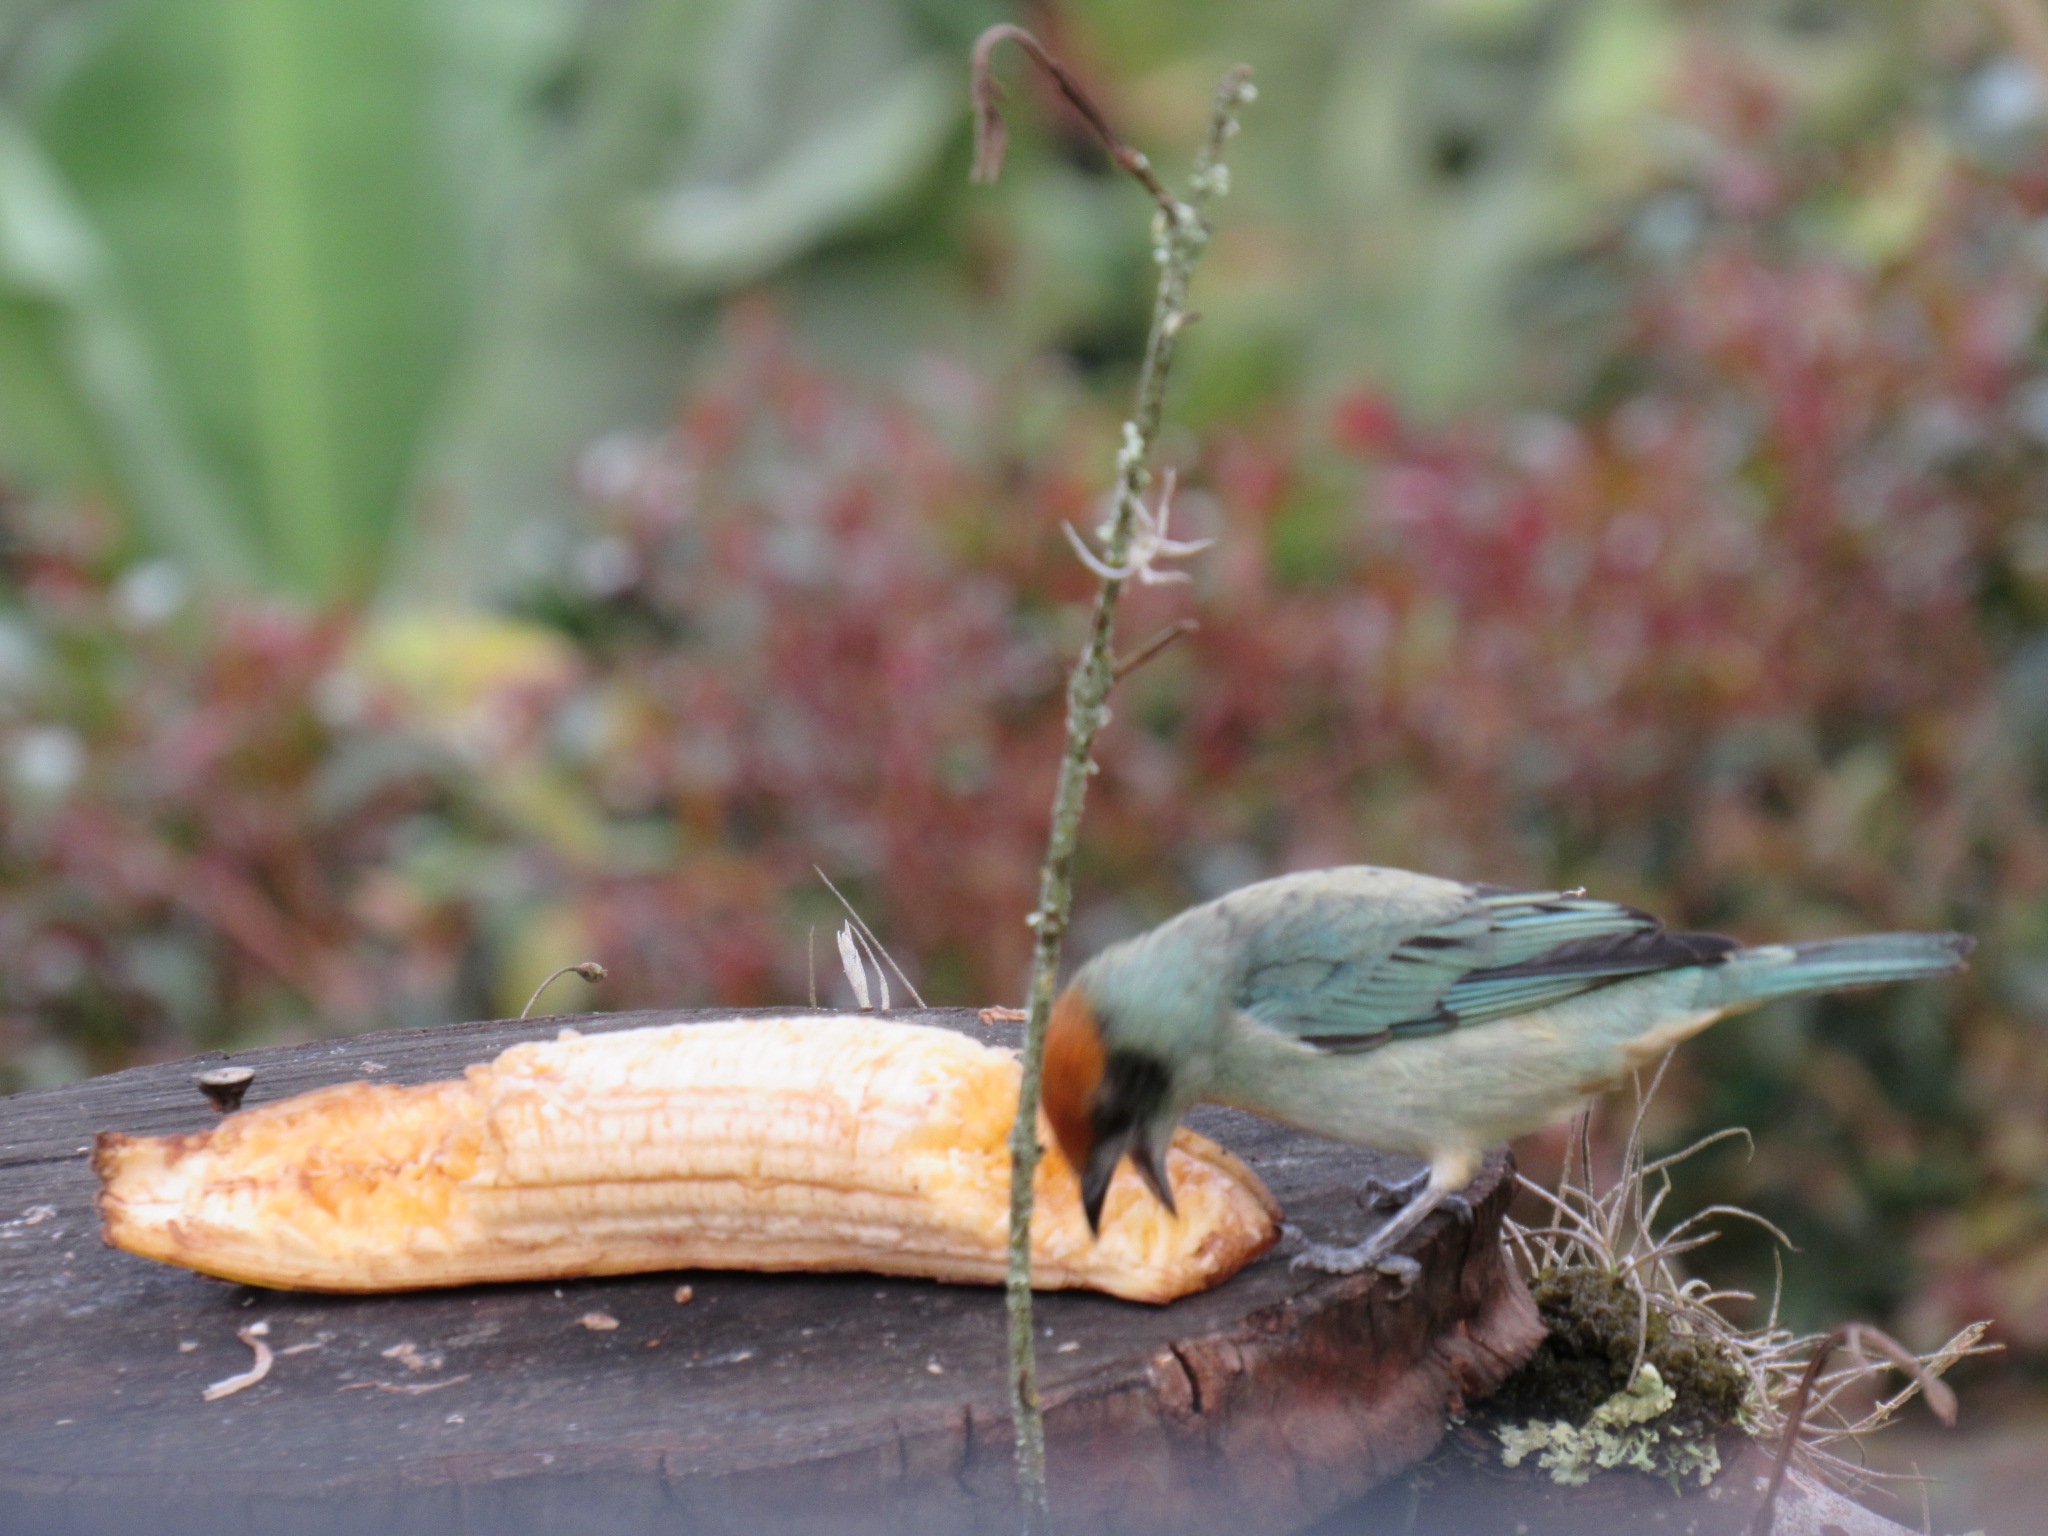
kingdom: Animalia
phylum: Chordata
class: Aves
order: Passeriformes
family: Thraupidae
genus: Stilpnia
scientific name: Stilpnia vitriolina
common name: Scrub tanager
